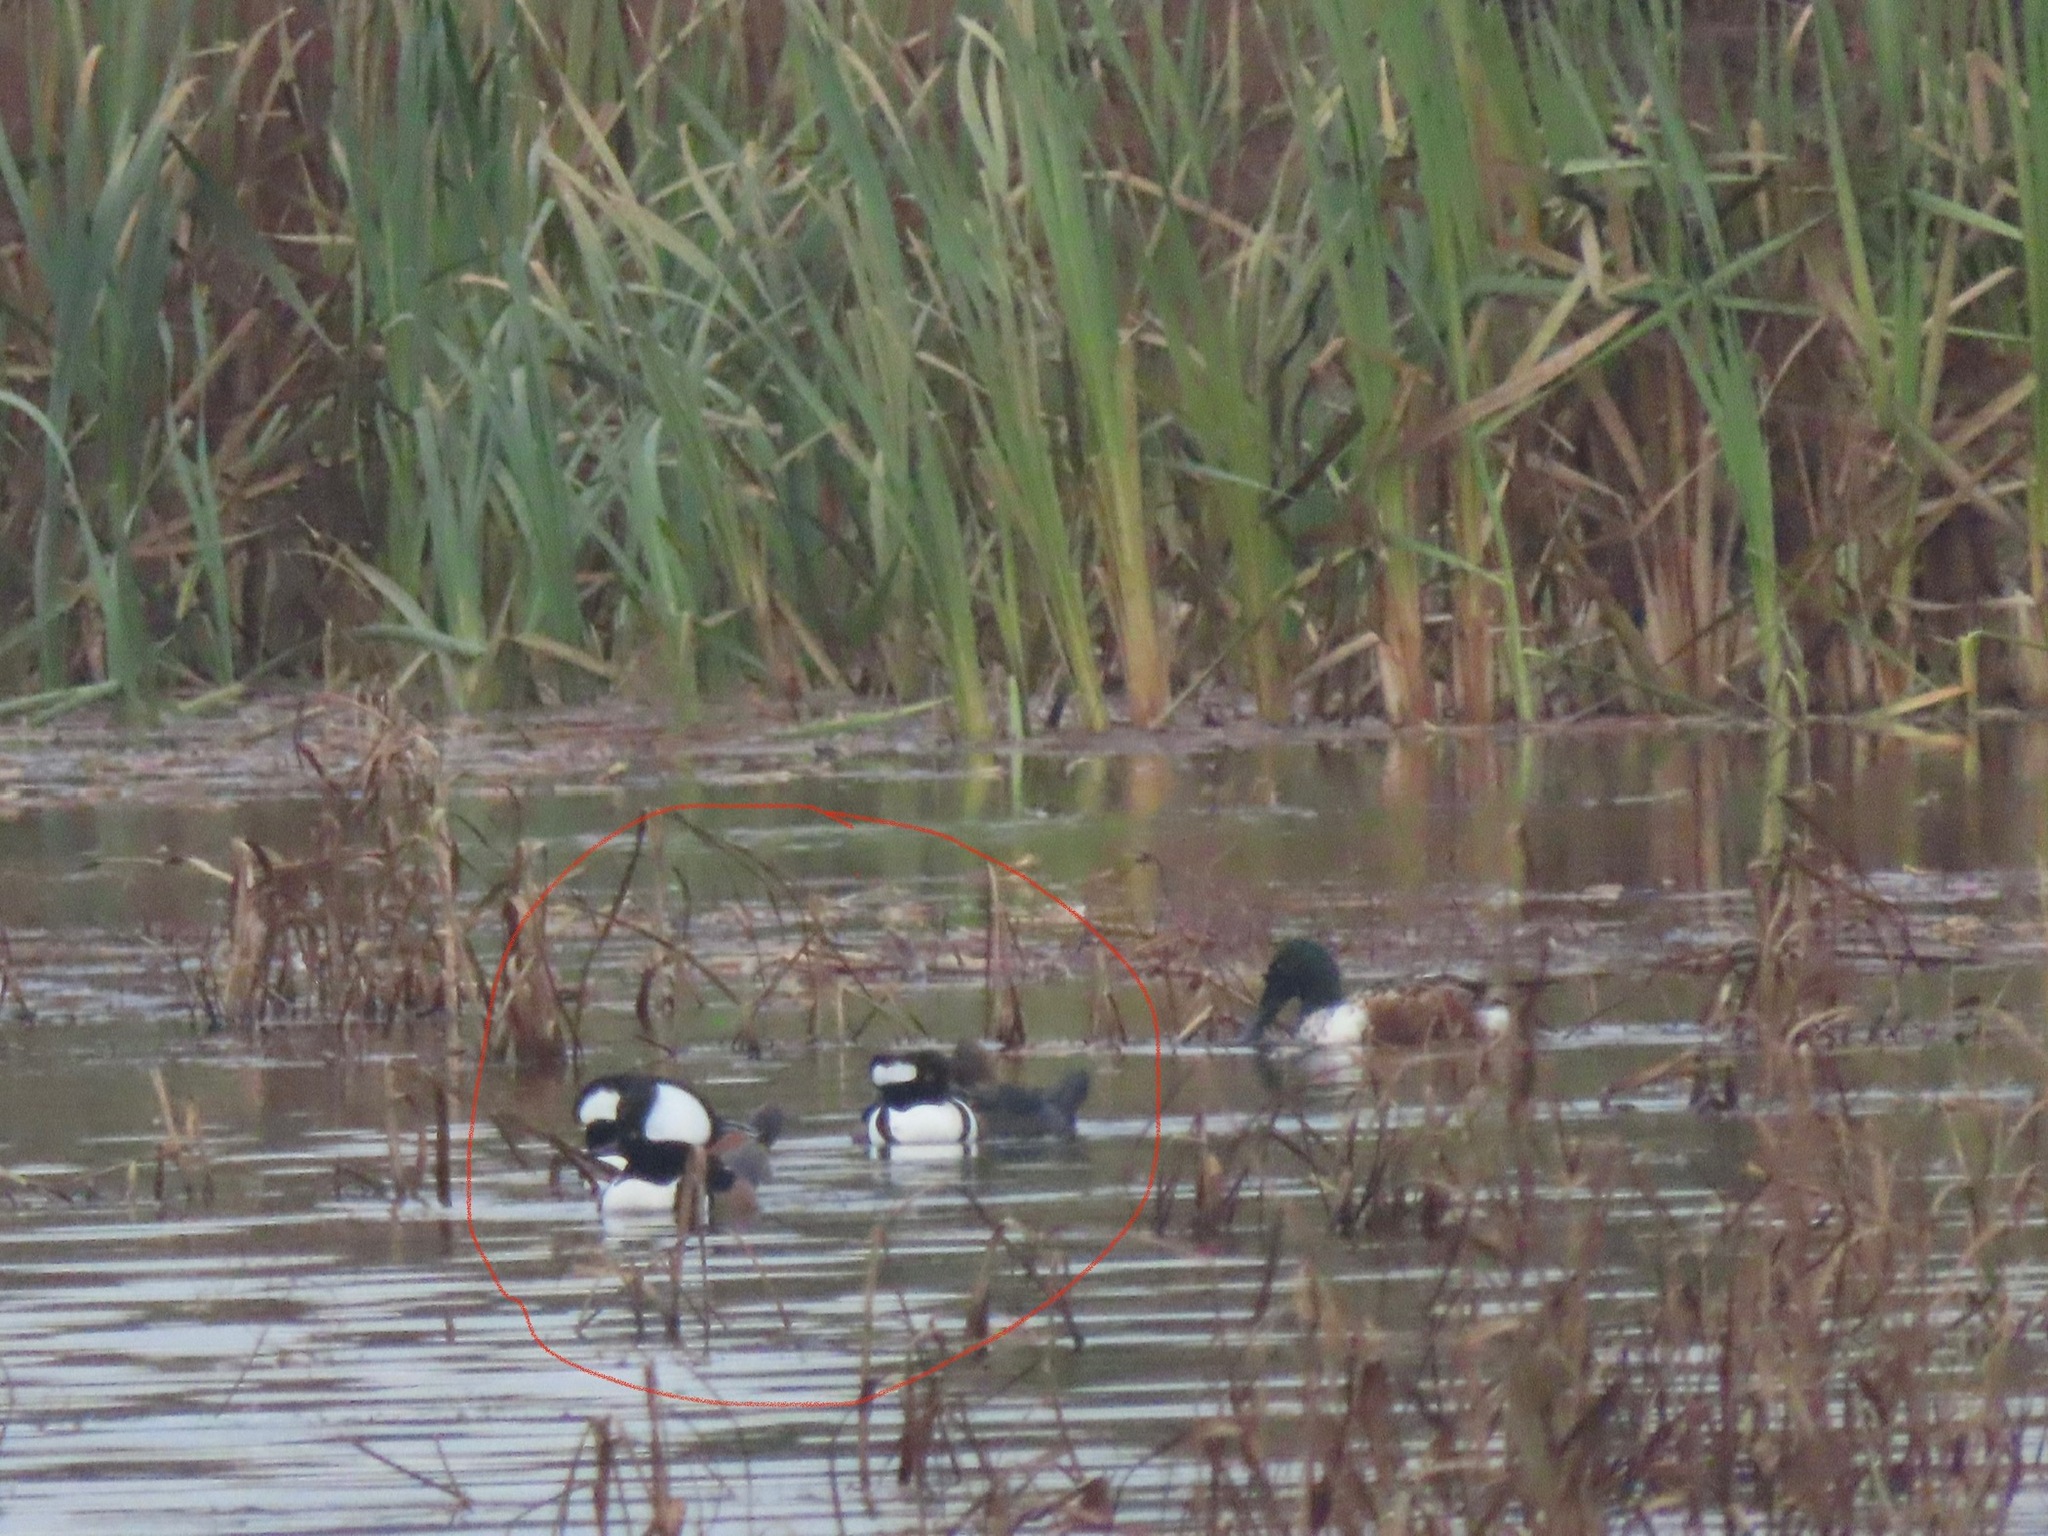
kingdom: Animalia
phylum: Chordata
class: Aves
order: Anseriformes
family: Anatidae
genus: Lophodytes
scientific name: Lophodytes cucullatus
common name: Hooded merganser
